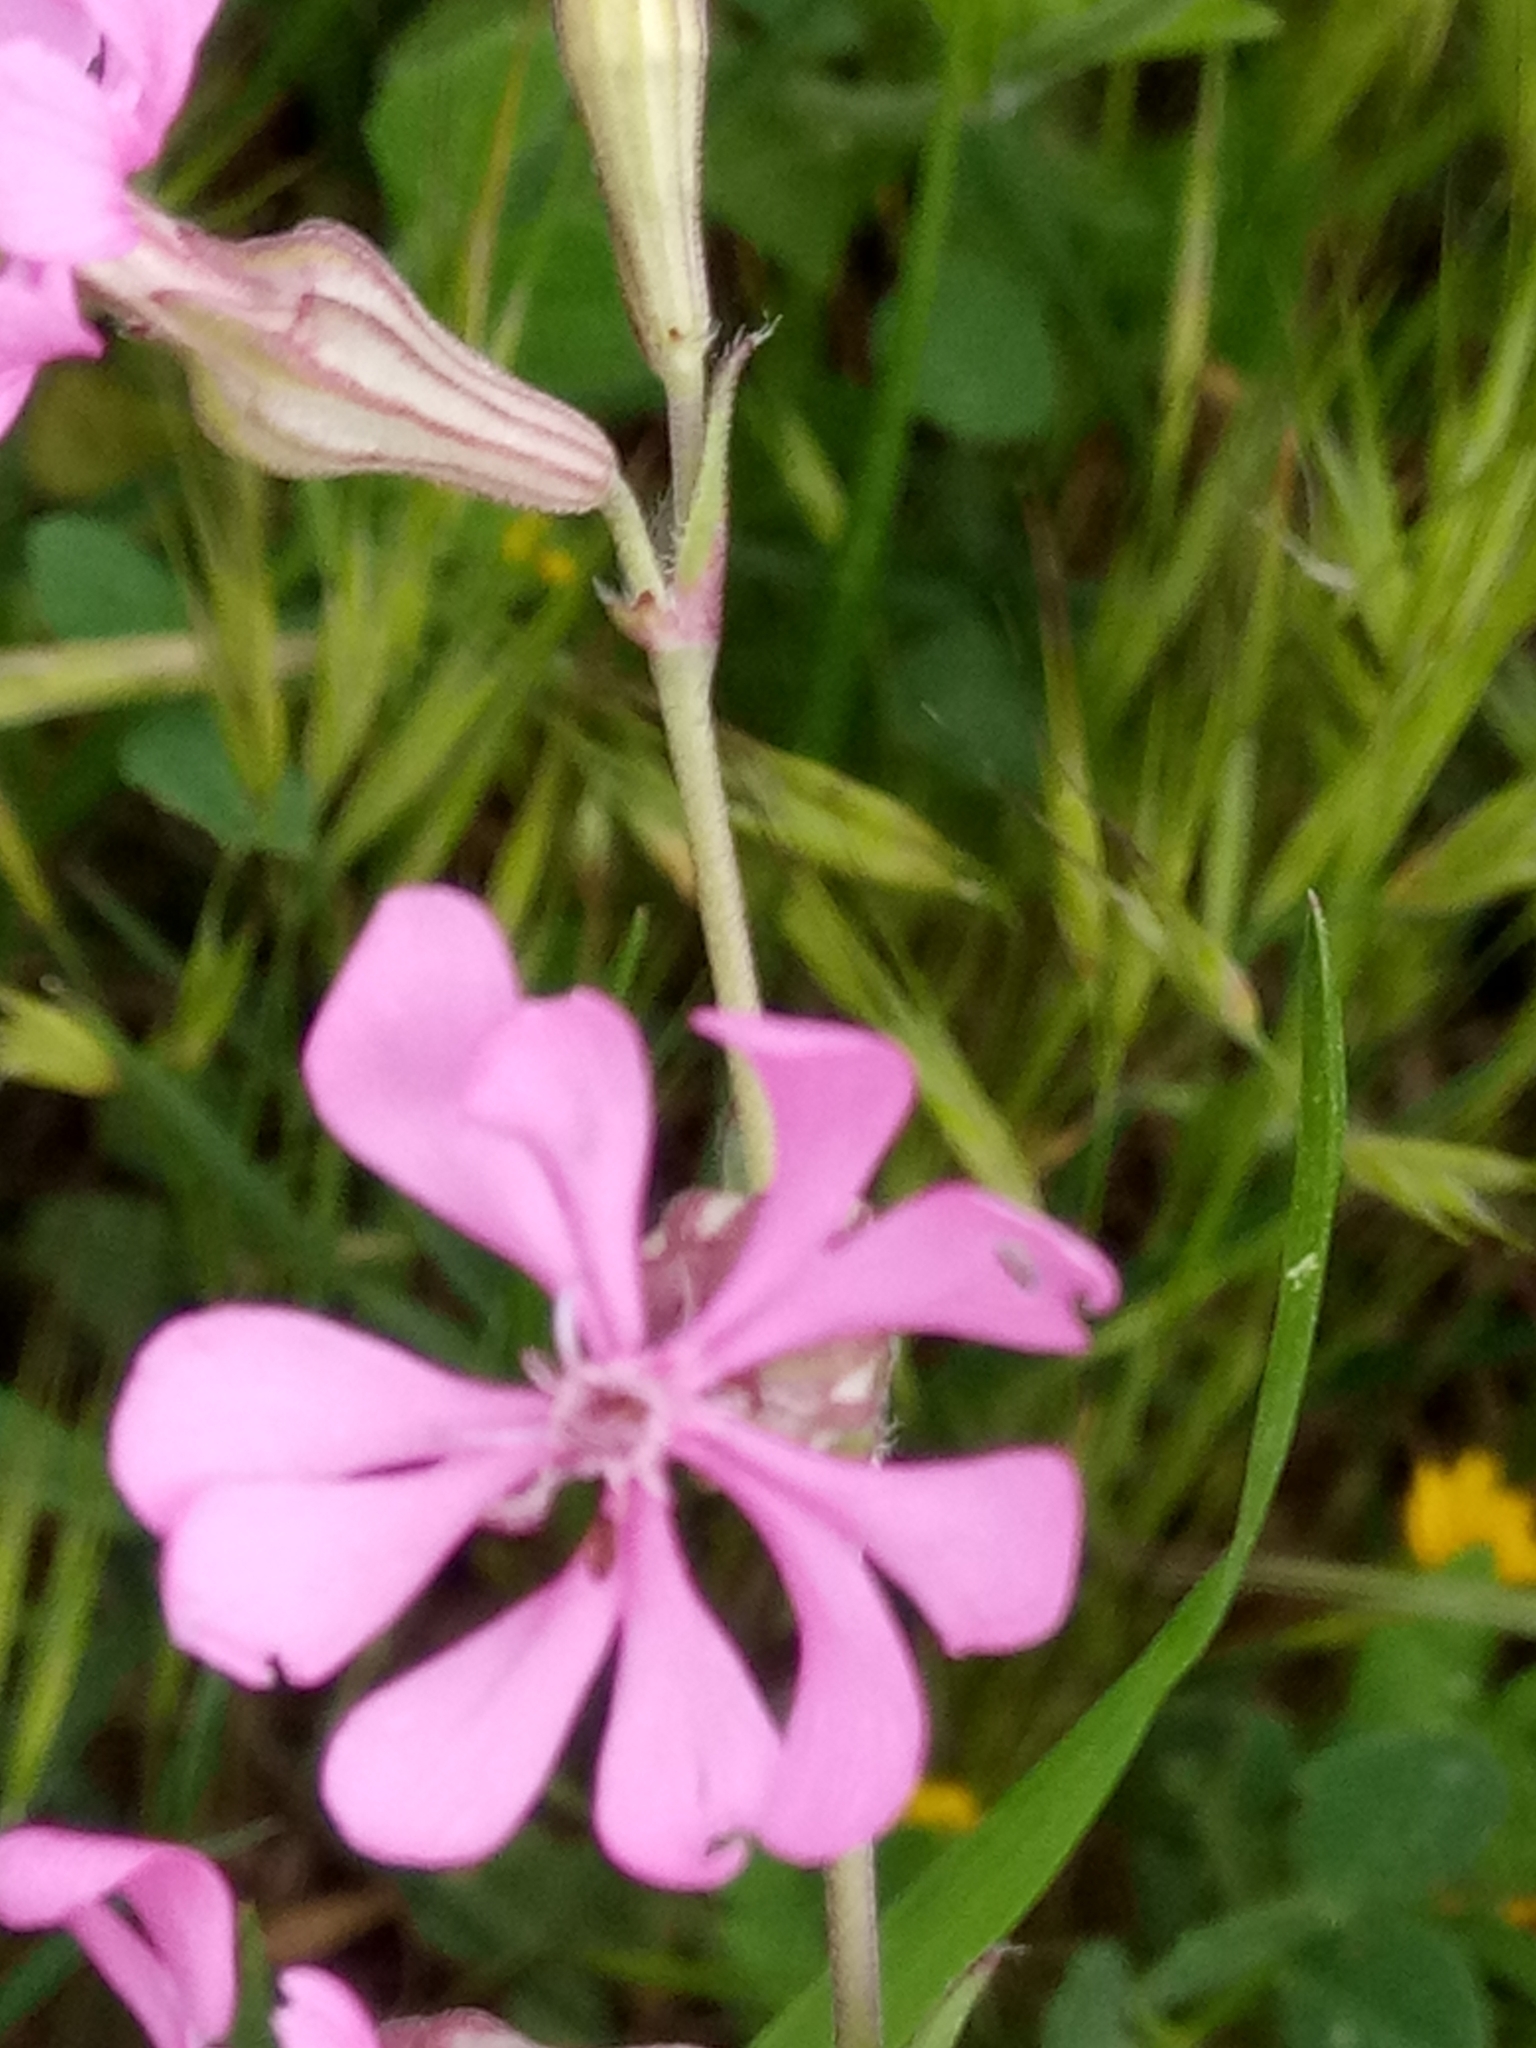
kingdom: Plantae
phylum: Tracheophyta
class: Magnoliopsida
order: Caryophyllales
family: Caryophyllaceae
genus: Silene
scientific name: Silene colorata
